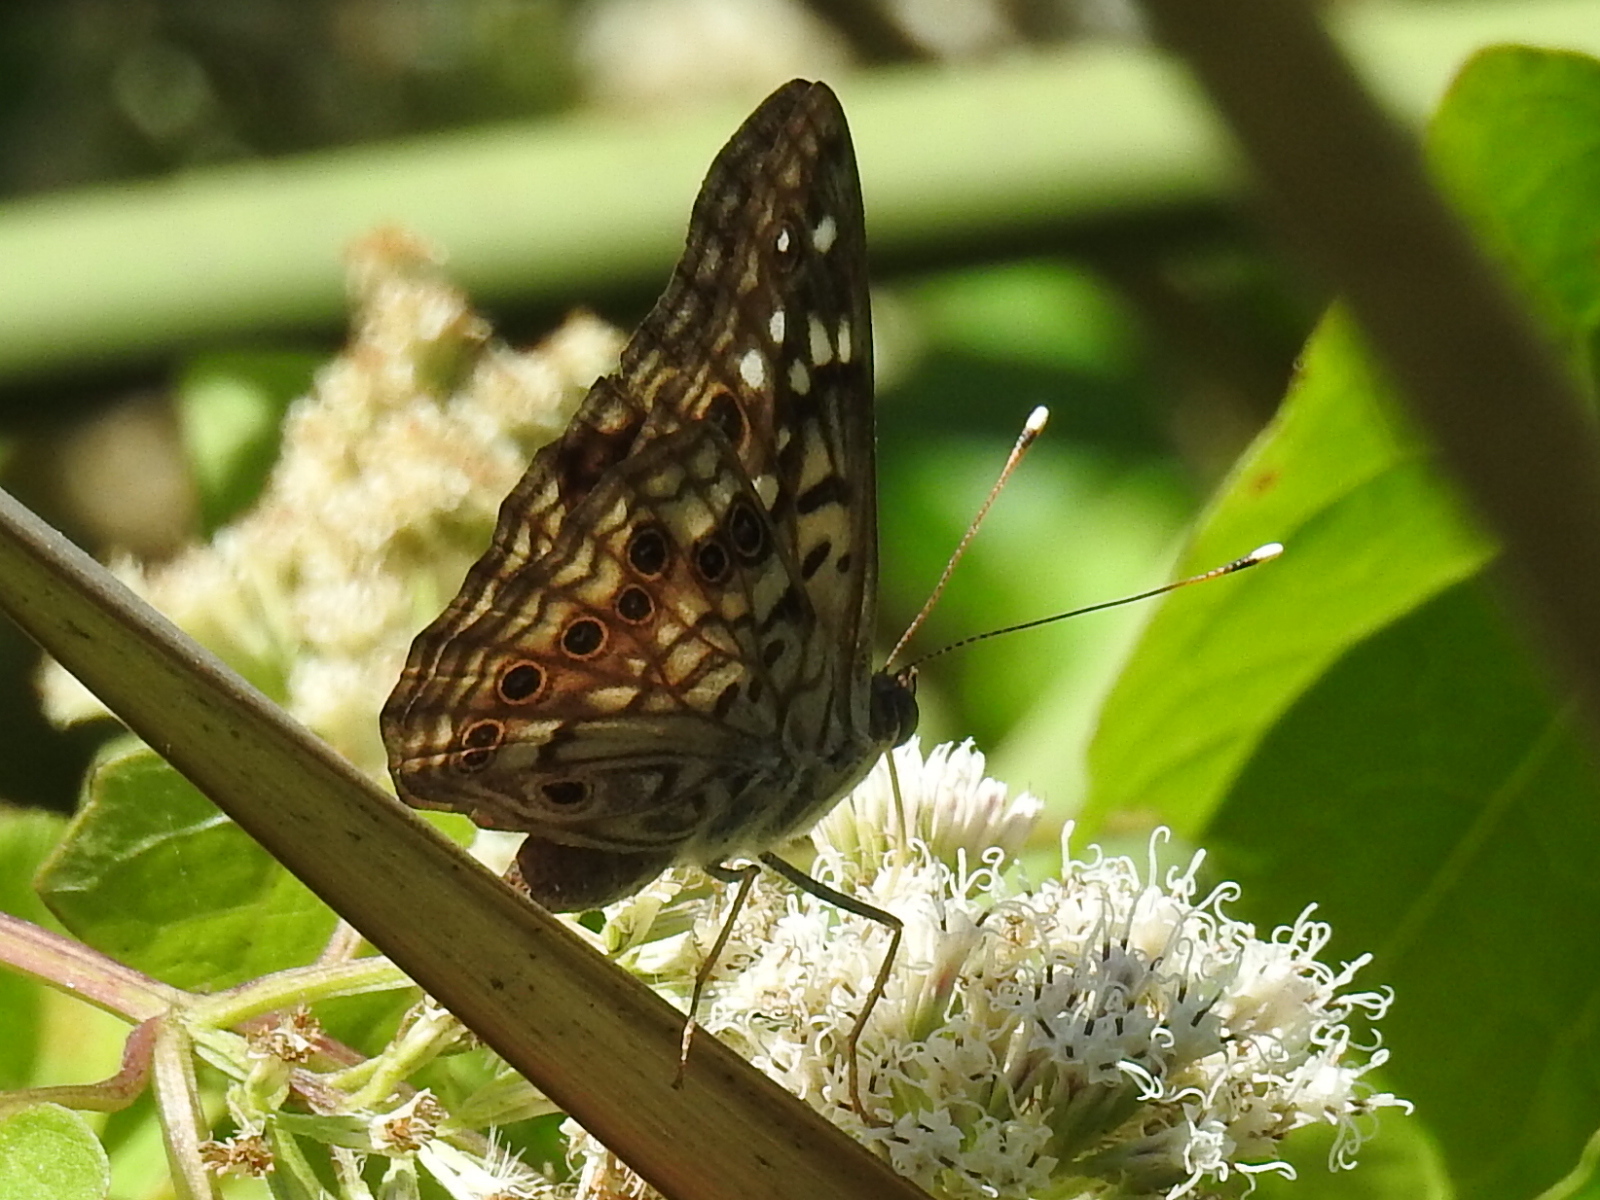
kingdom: Animalia
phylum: Arthropoda
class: Insecta
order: Lepidoptera
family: Nymphalidae
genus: Asterocampa
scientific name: Asterocampa celtis
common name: Hackberry emperor
